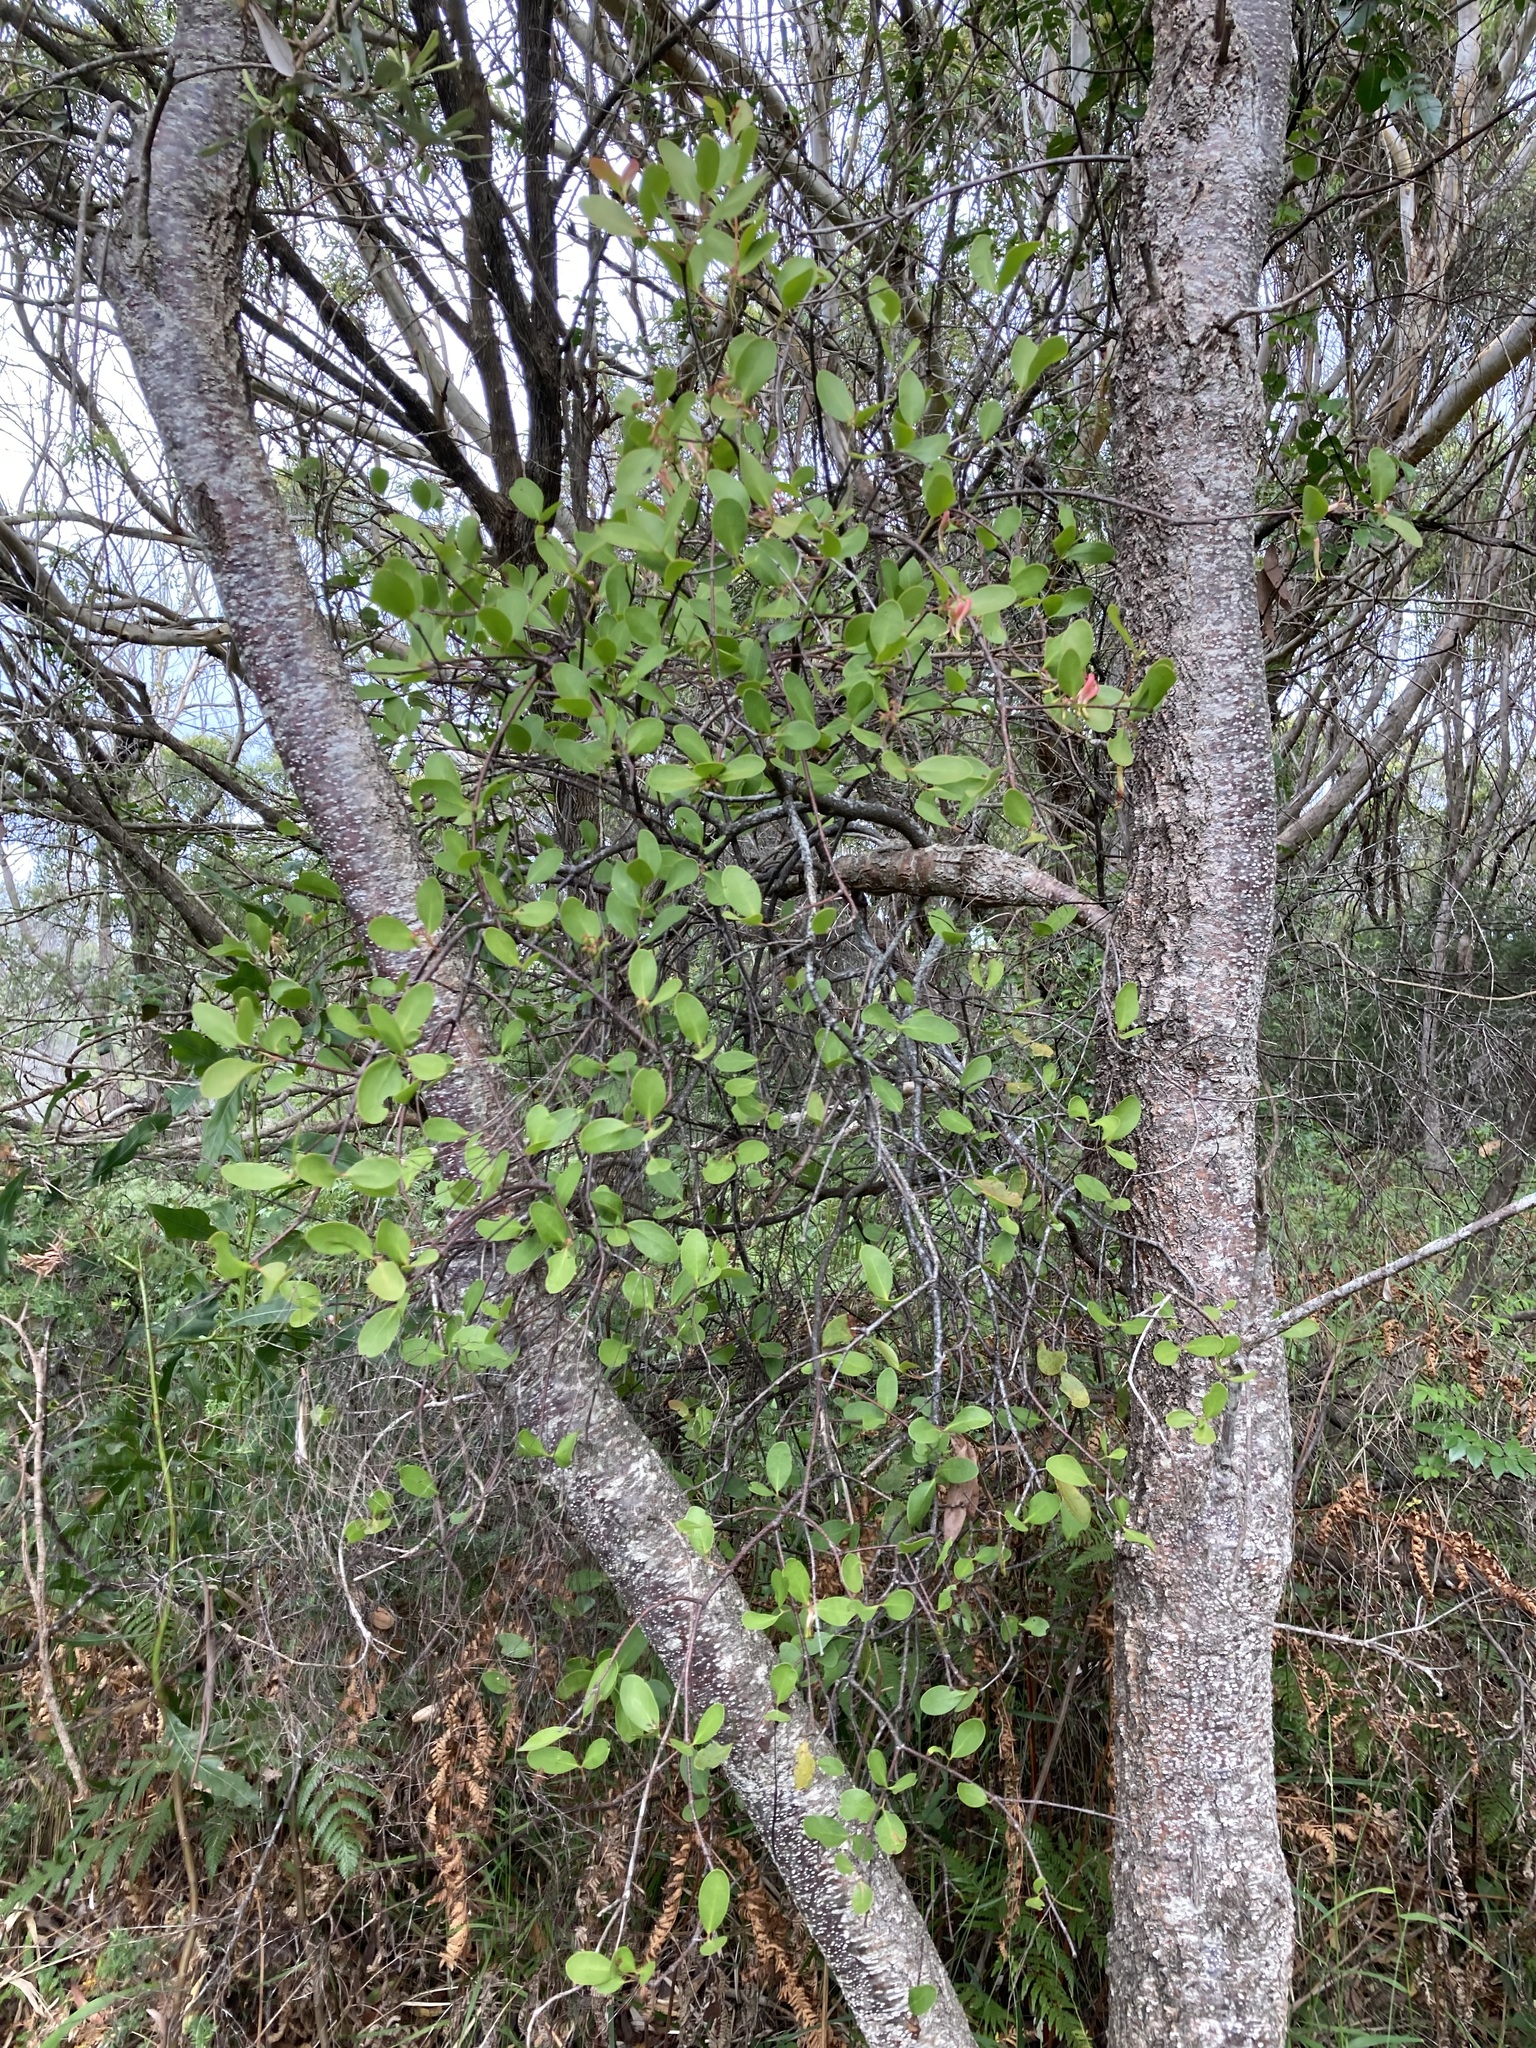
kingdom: Plantae
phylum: Tracheophyta
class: Magnoliopsida
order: Santalales
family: Loranthaceae
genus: Muellerina
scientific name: Muellerina celastroides
